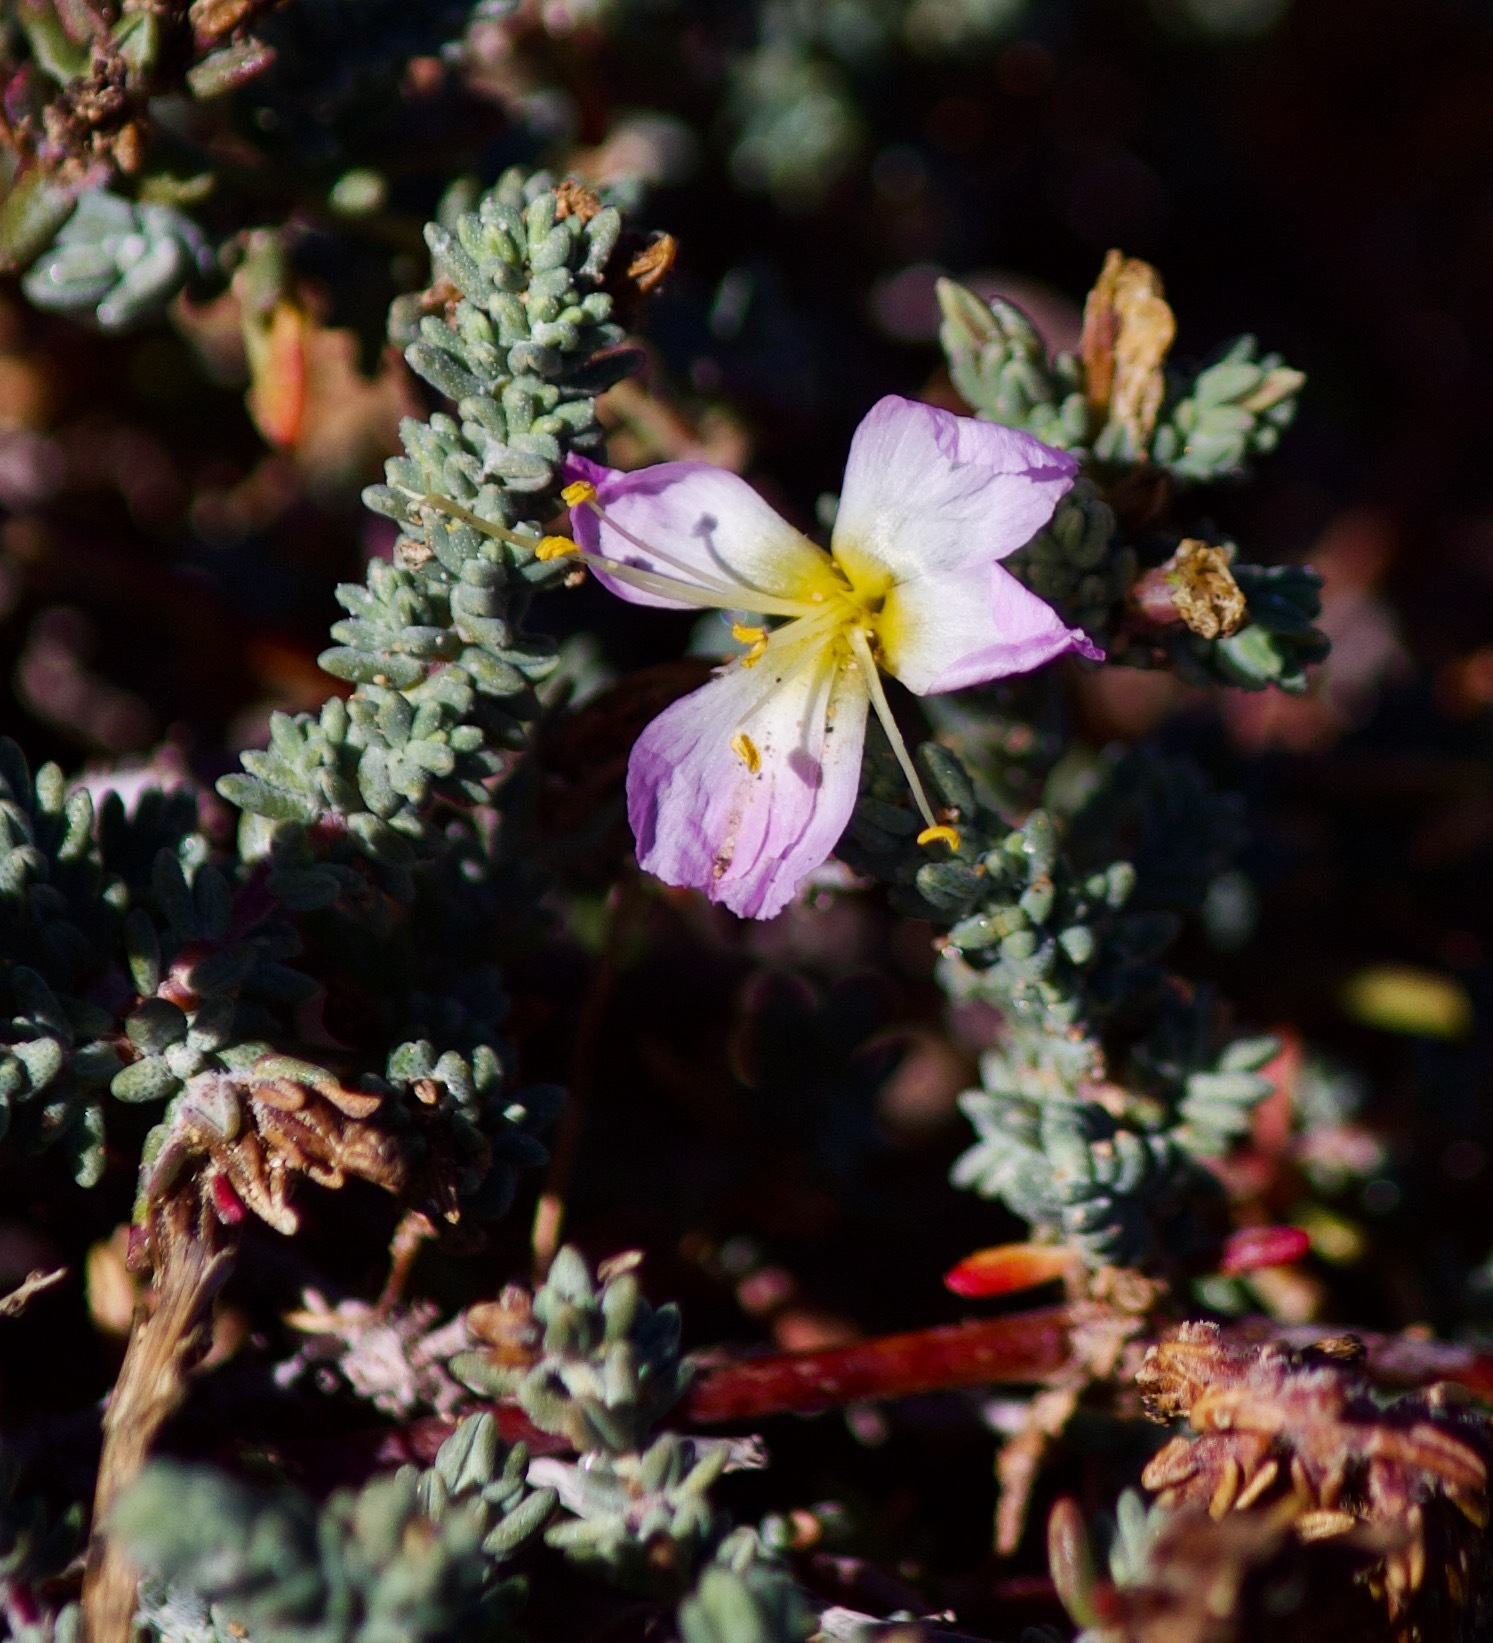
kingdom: Plantae
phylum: Tracheophyta
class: Magnoliopsida
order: Caryophyllales
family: Frankeniaceae
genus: Frankenia
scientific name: Frankenia chilensis
